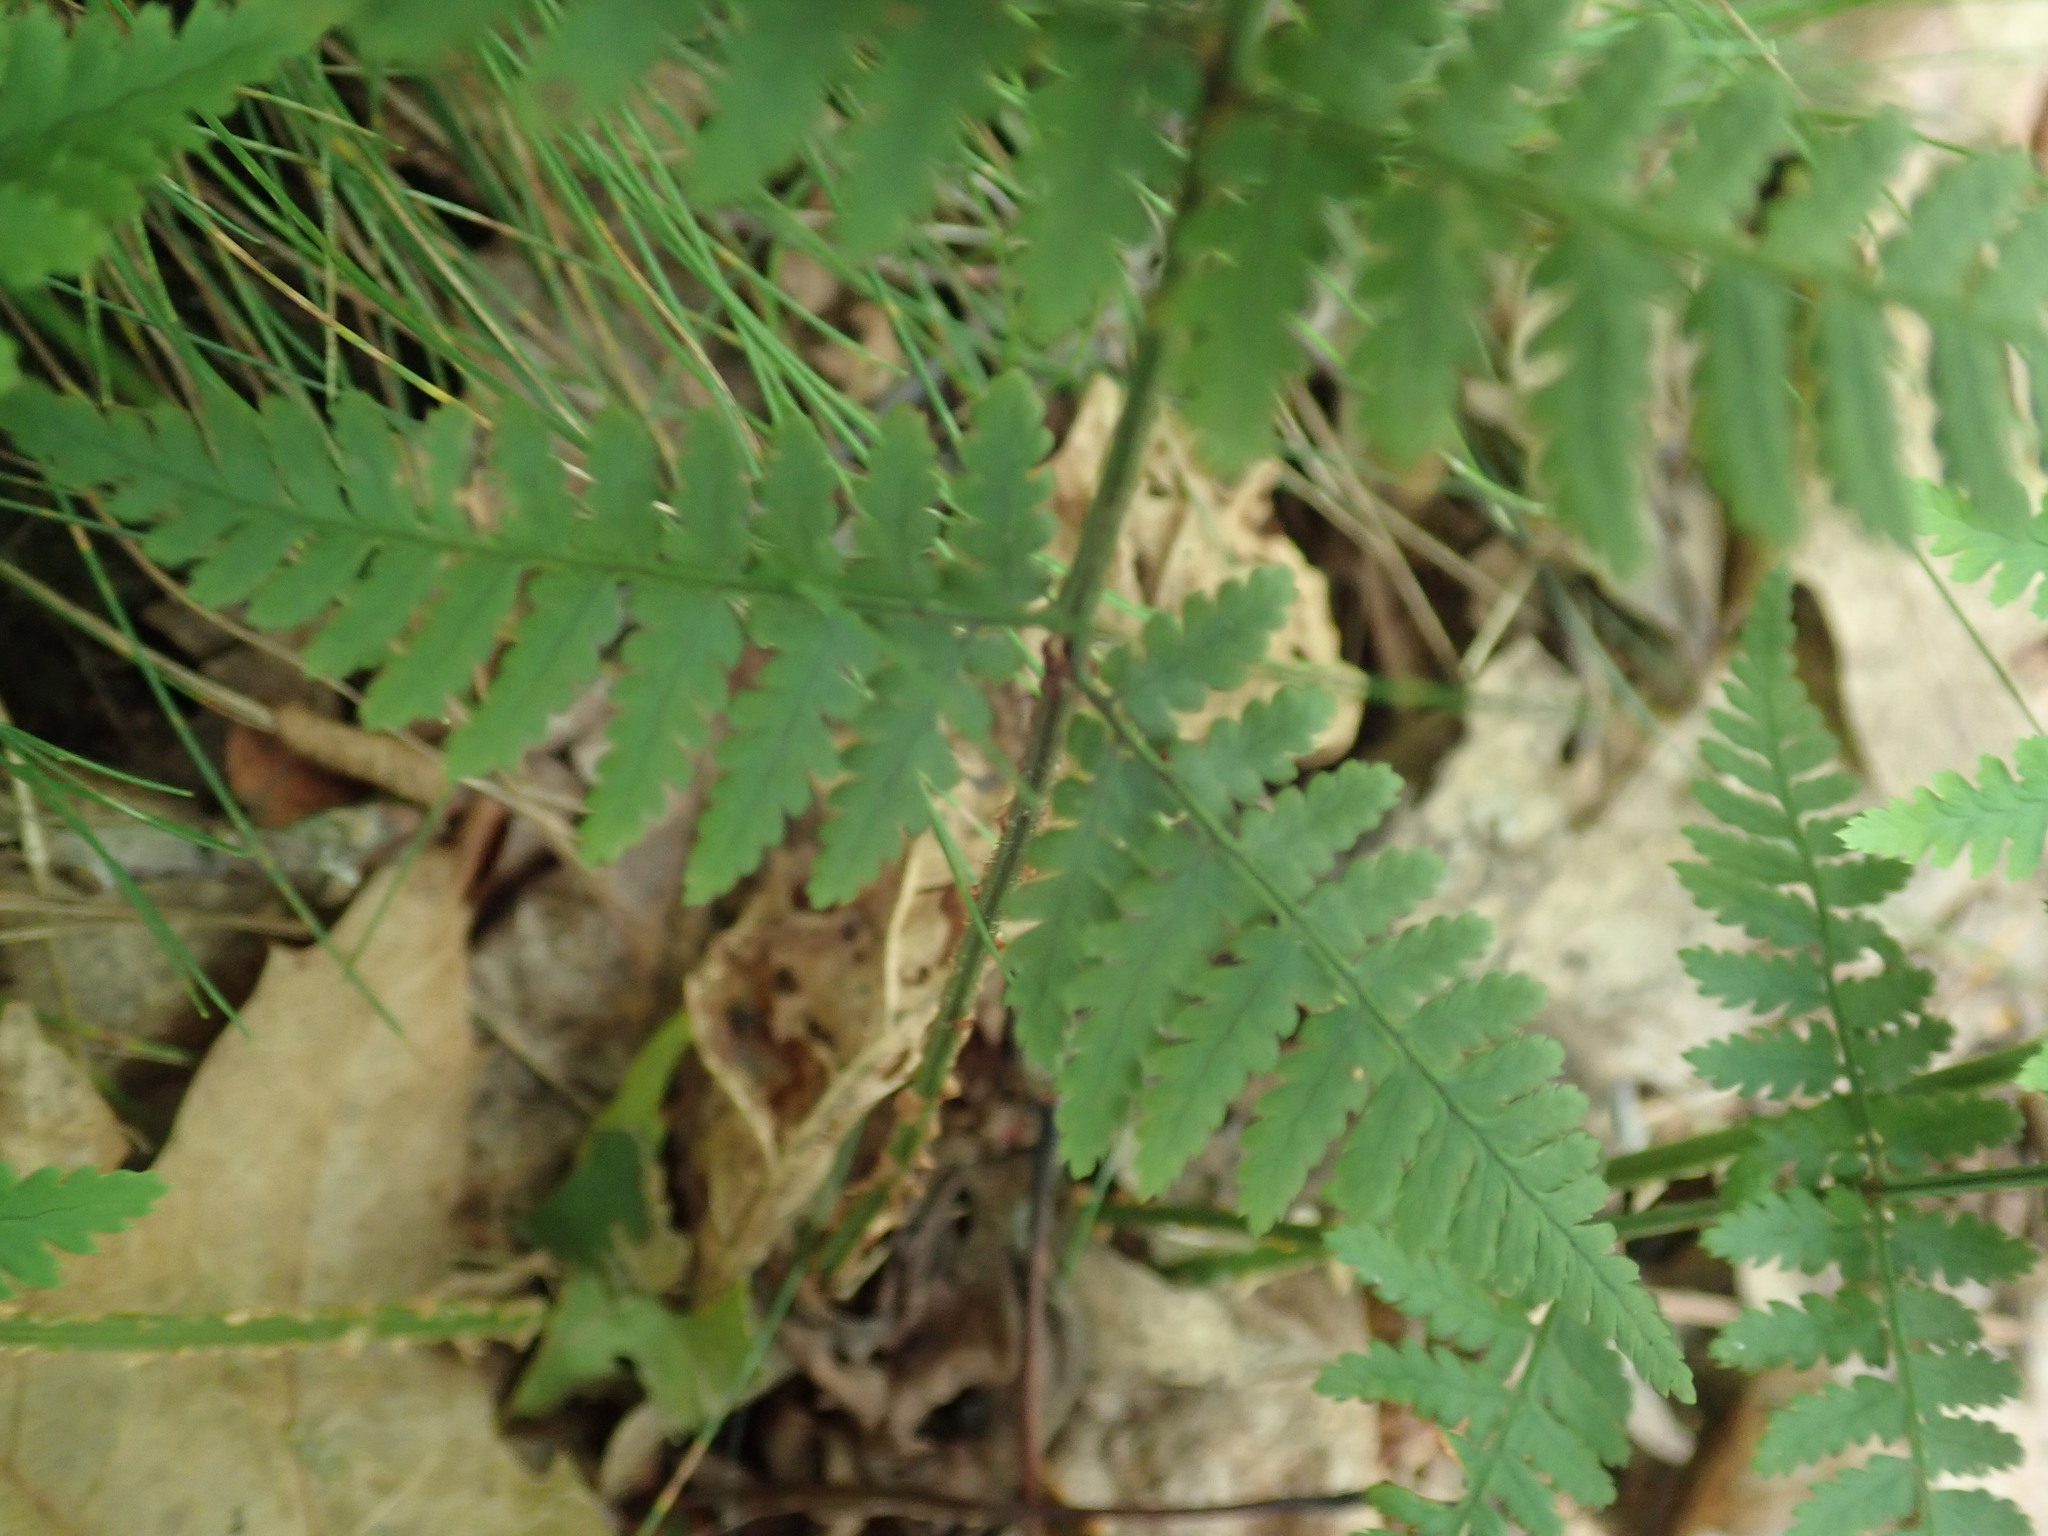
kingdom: Plantae
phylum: Tracheophyta
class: Polypodiopsida
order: Polypodiales
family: Dryopteridaceae
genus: Dryopteris
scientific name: Dryopteris intermedia
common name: Evergreen wood fern
